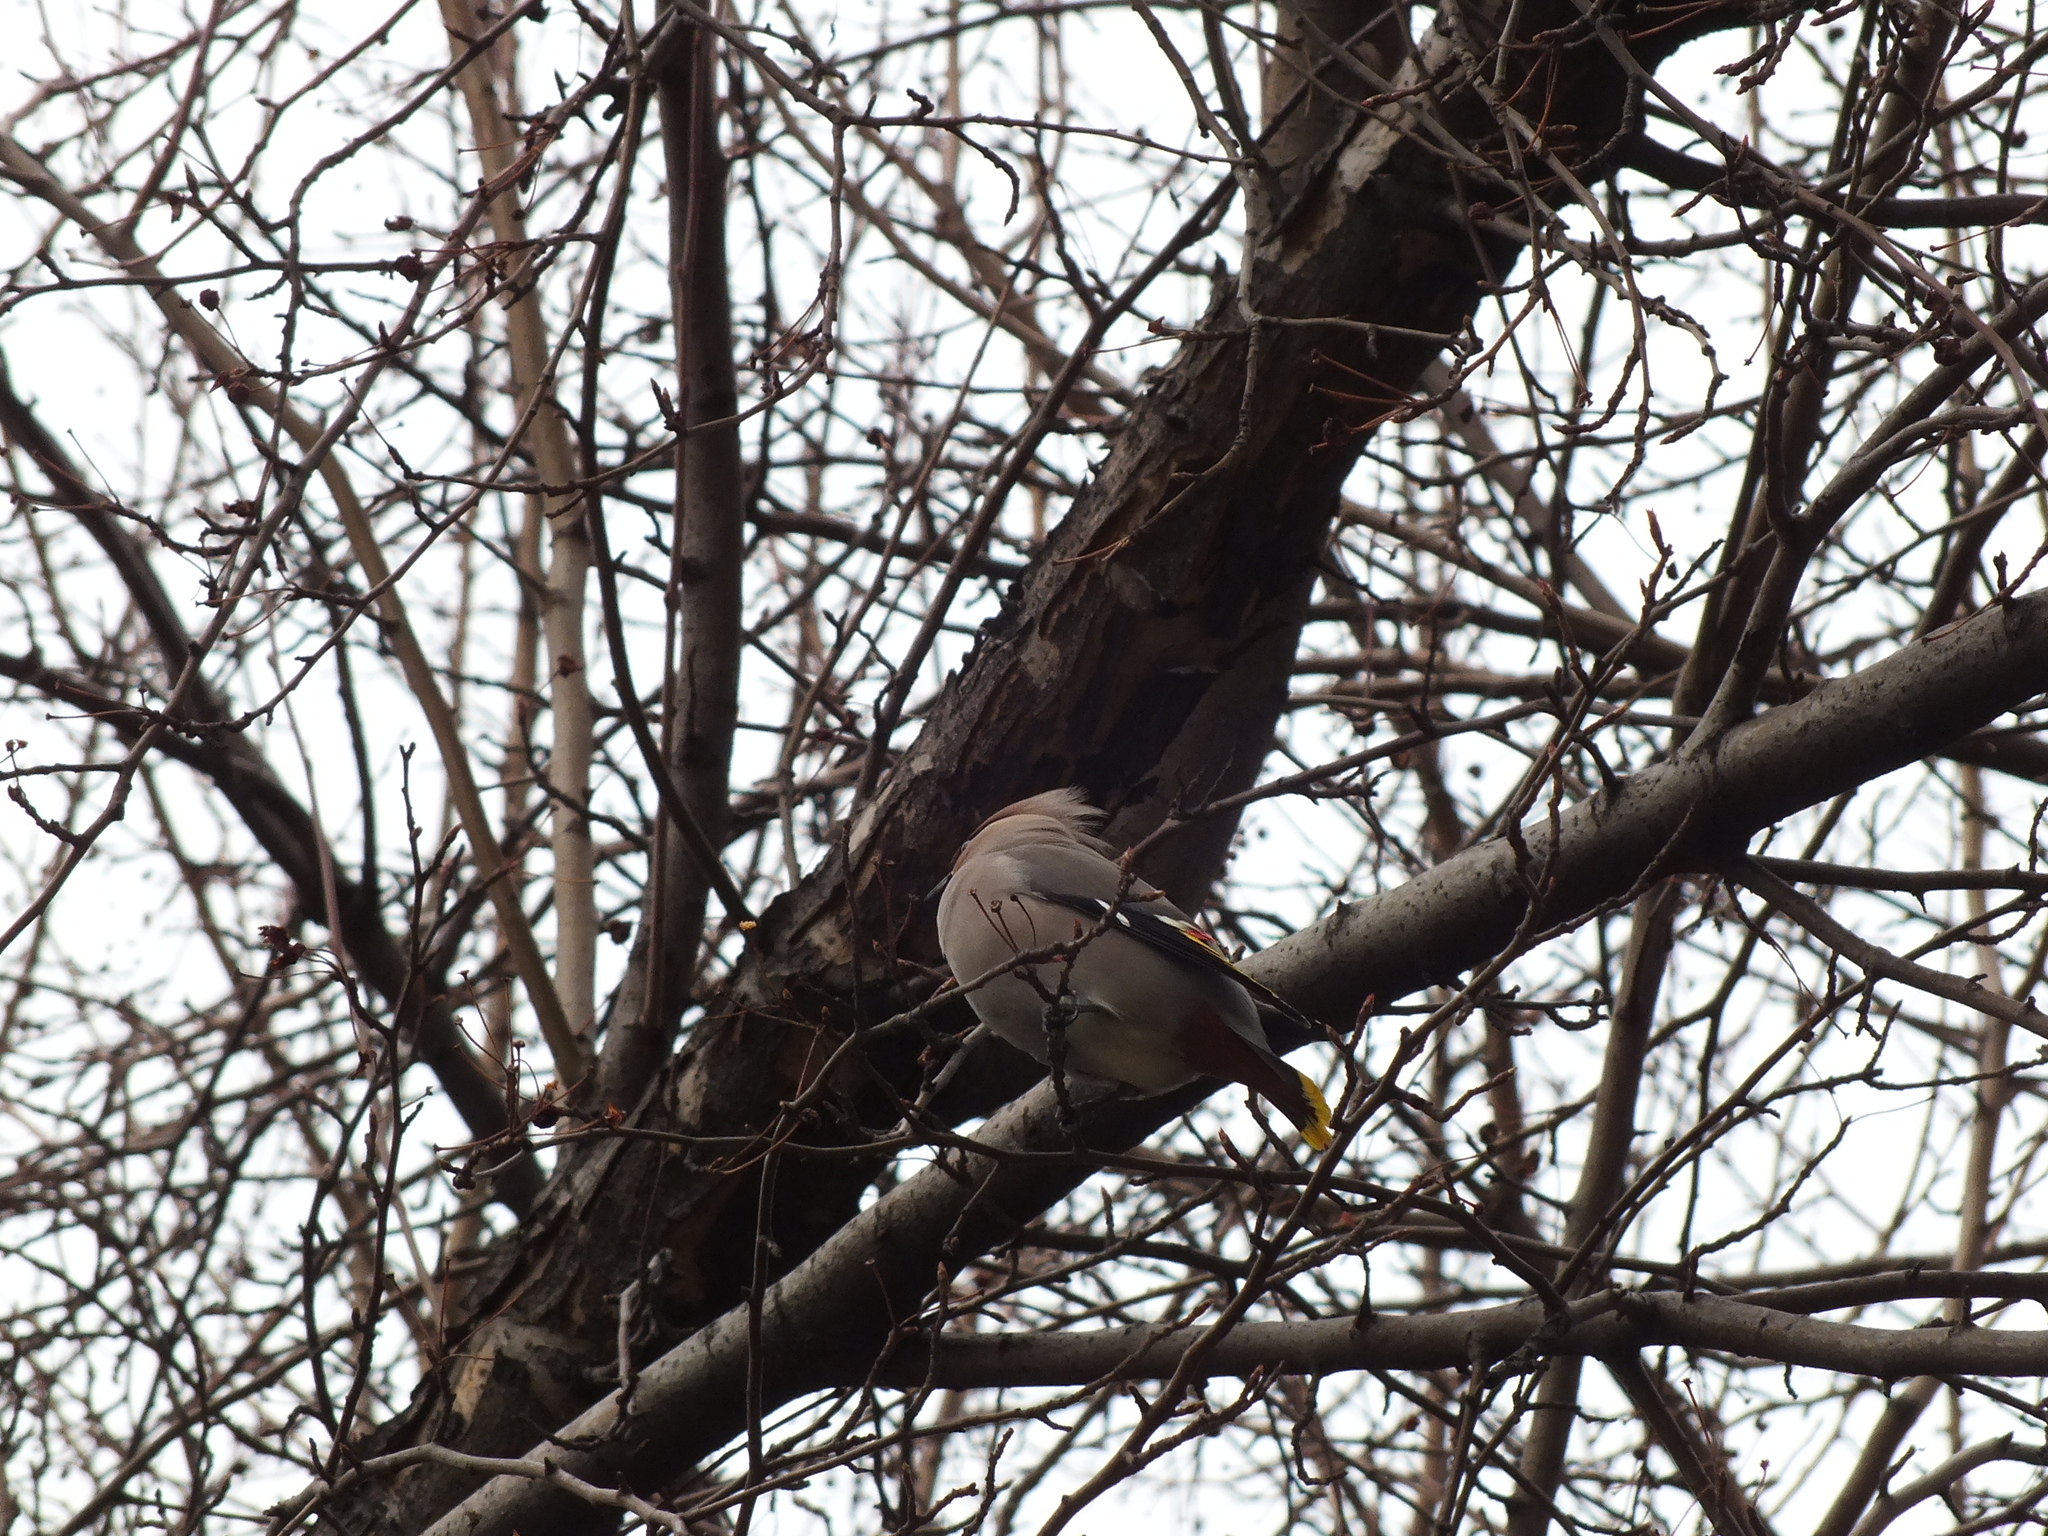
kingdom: Animalia
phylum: Chordata
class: Aves
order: Passeriformes
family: Bombycillidae
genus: Bombycilla
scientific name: Bombycilla garrulus
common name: Bohemian waxwing
